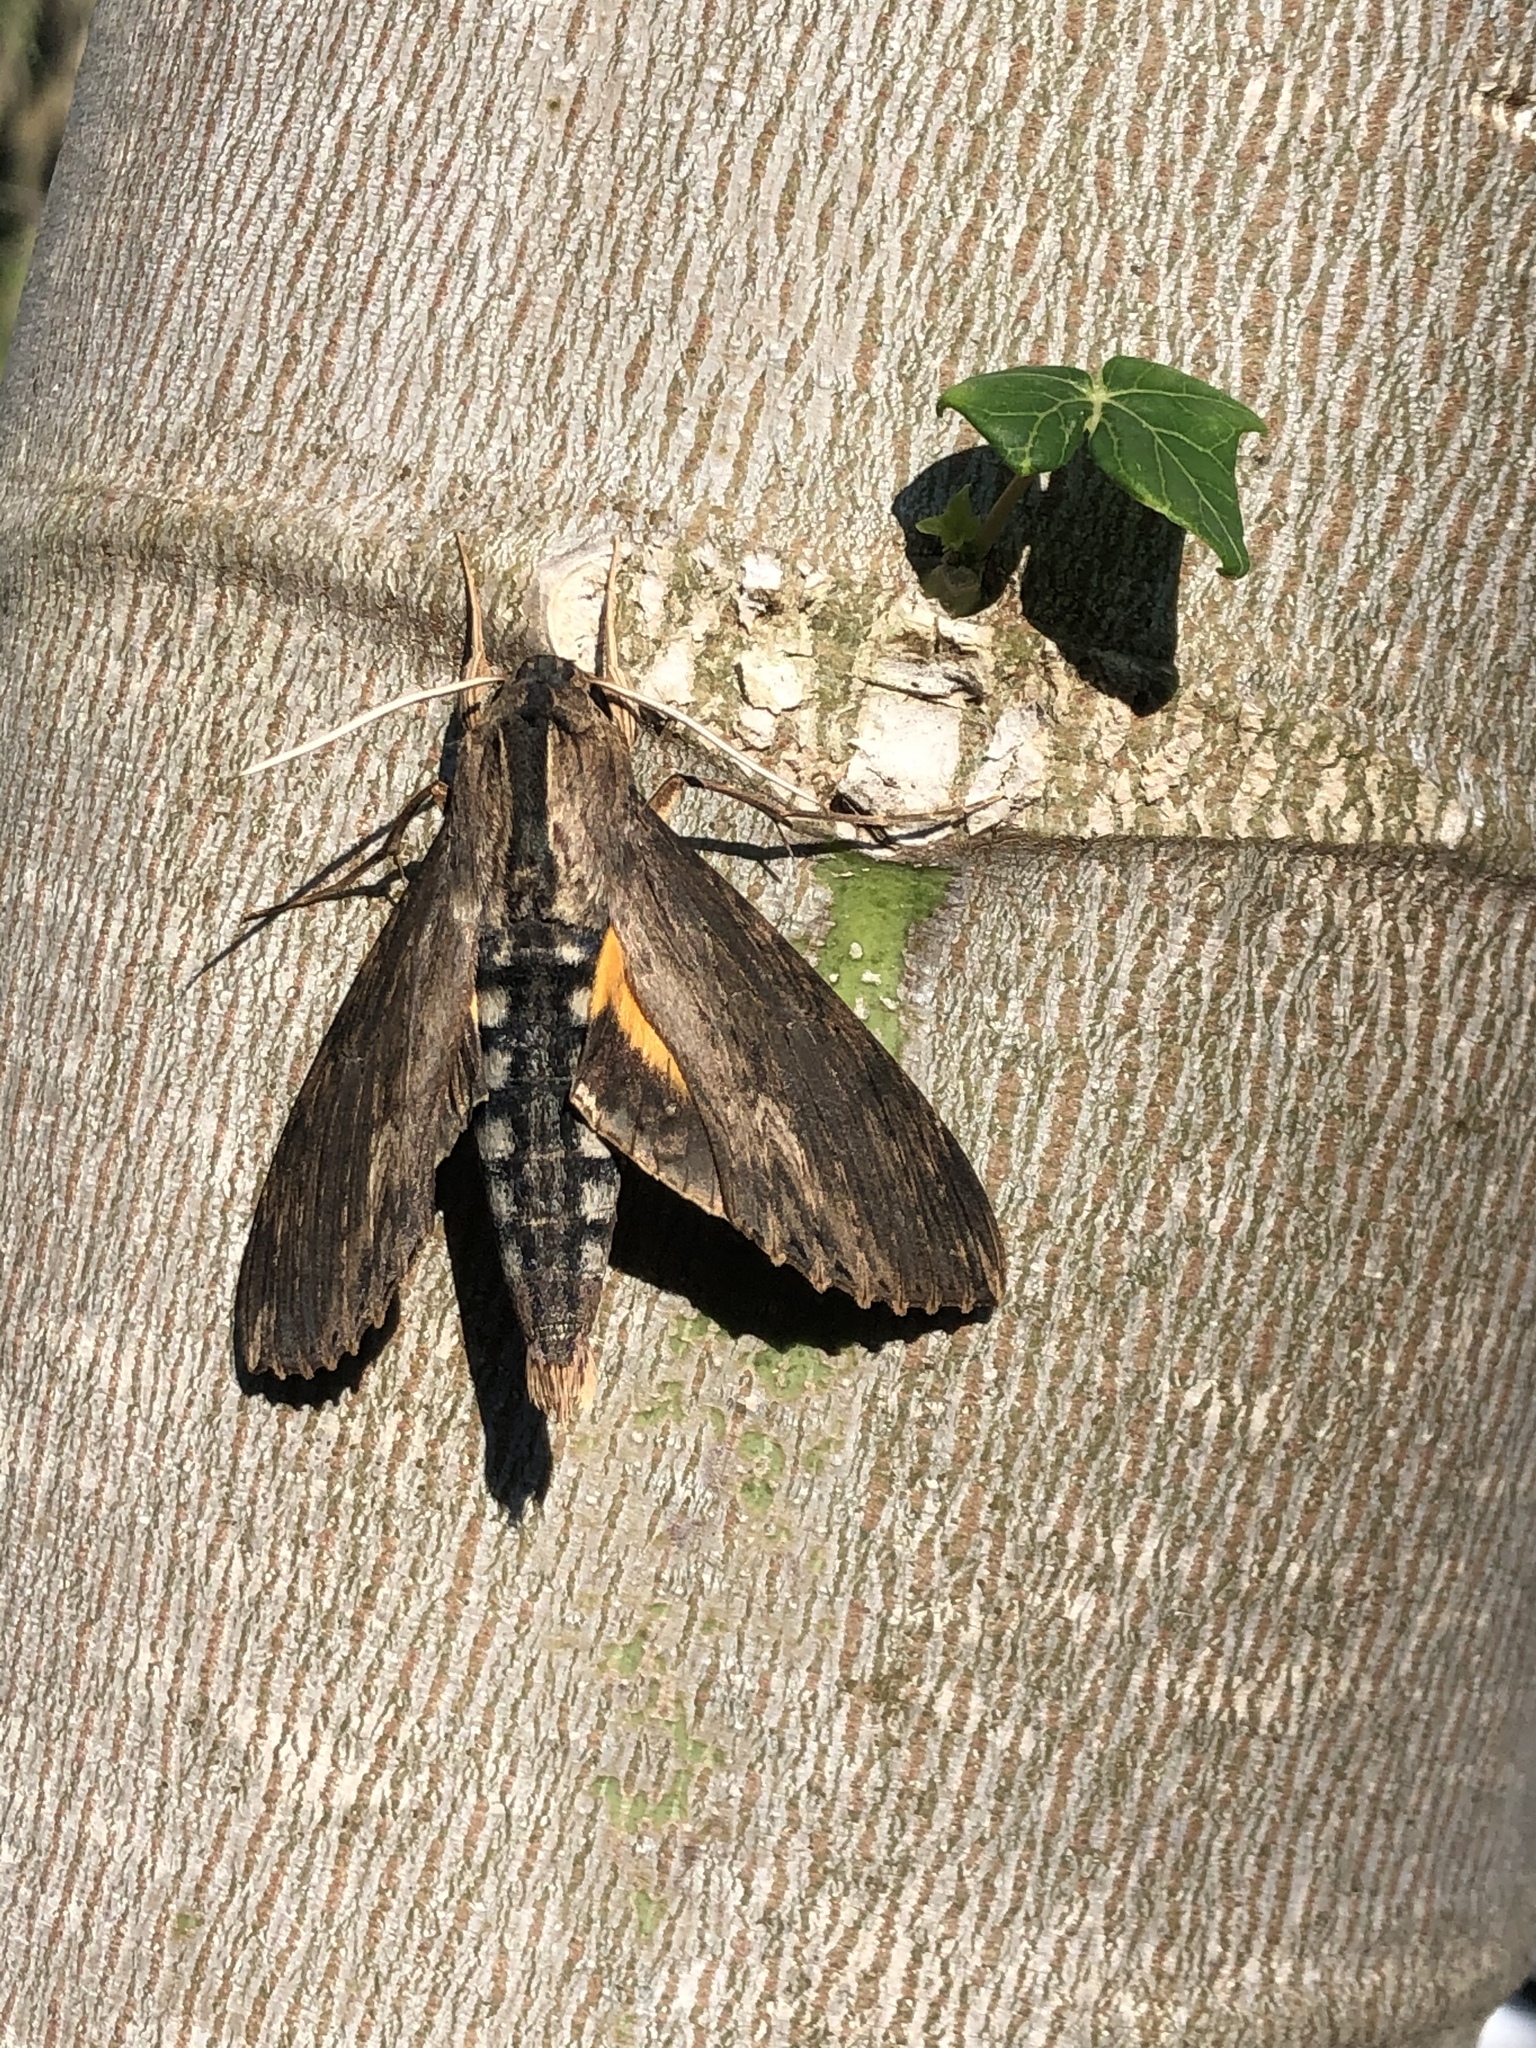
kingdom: Animalia
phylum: Arthropoda
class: Insecta
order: Lepidoptera
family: Sphingidae
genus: Erinnyis
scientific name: Erinnyis alope
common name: Alope sphinx
